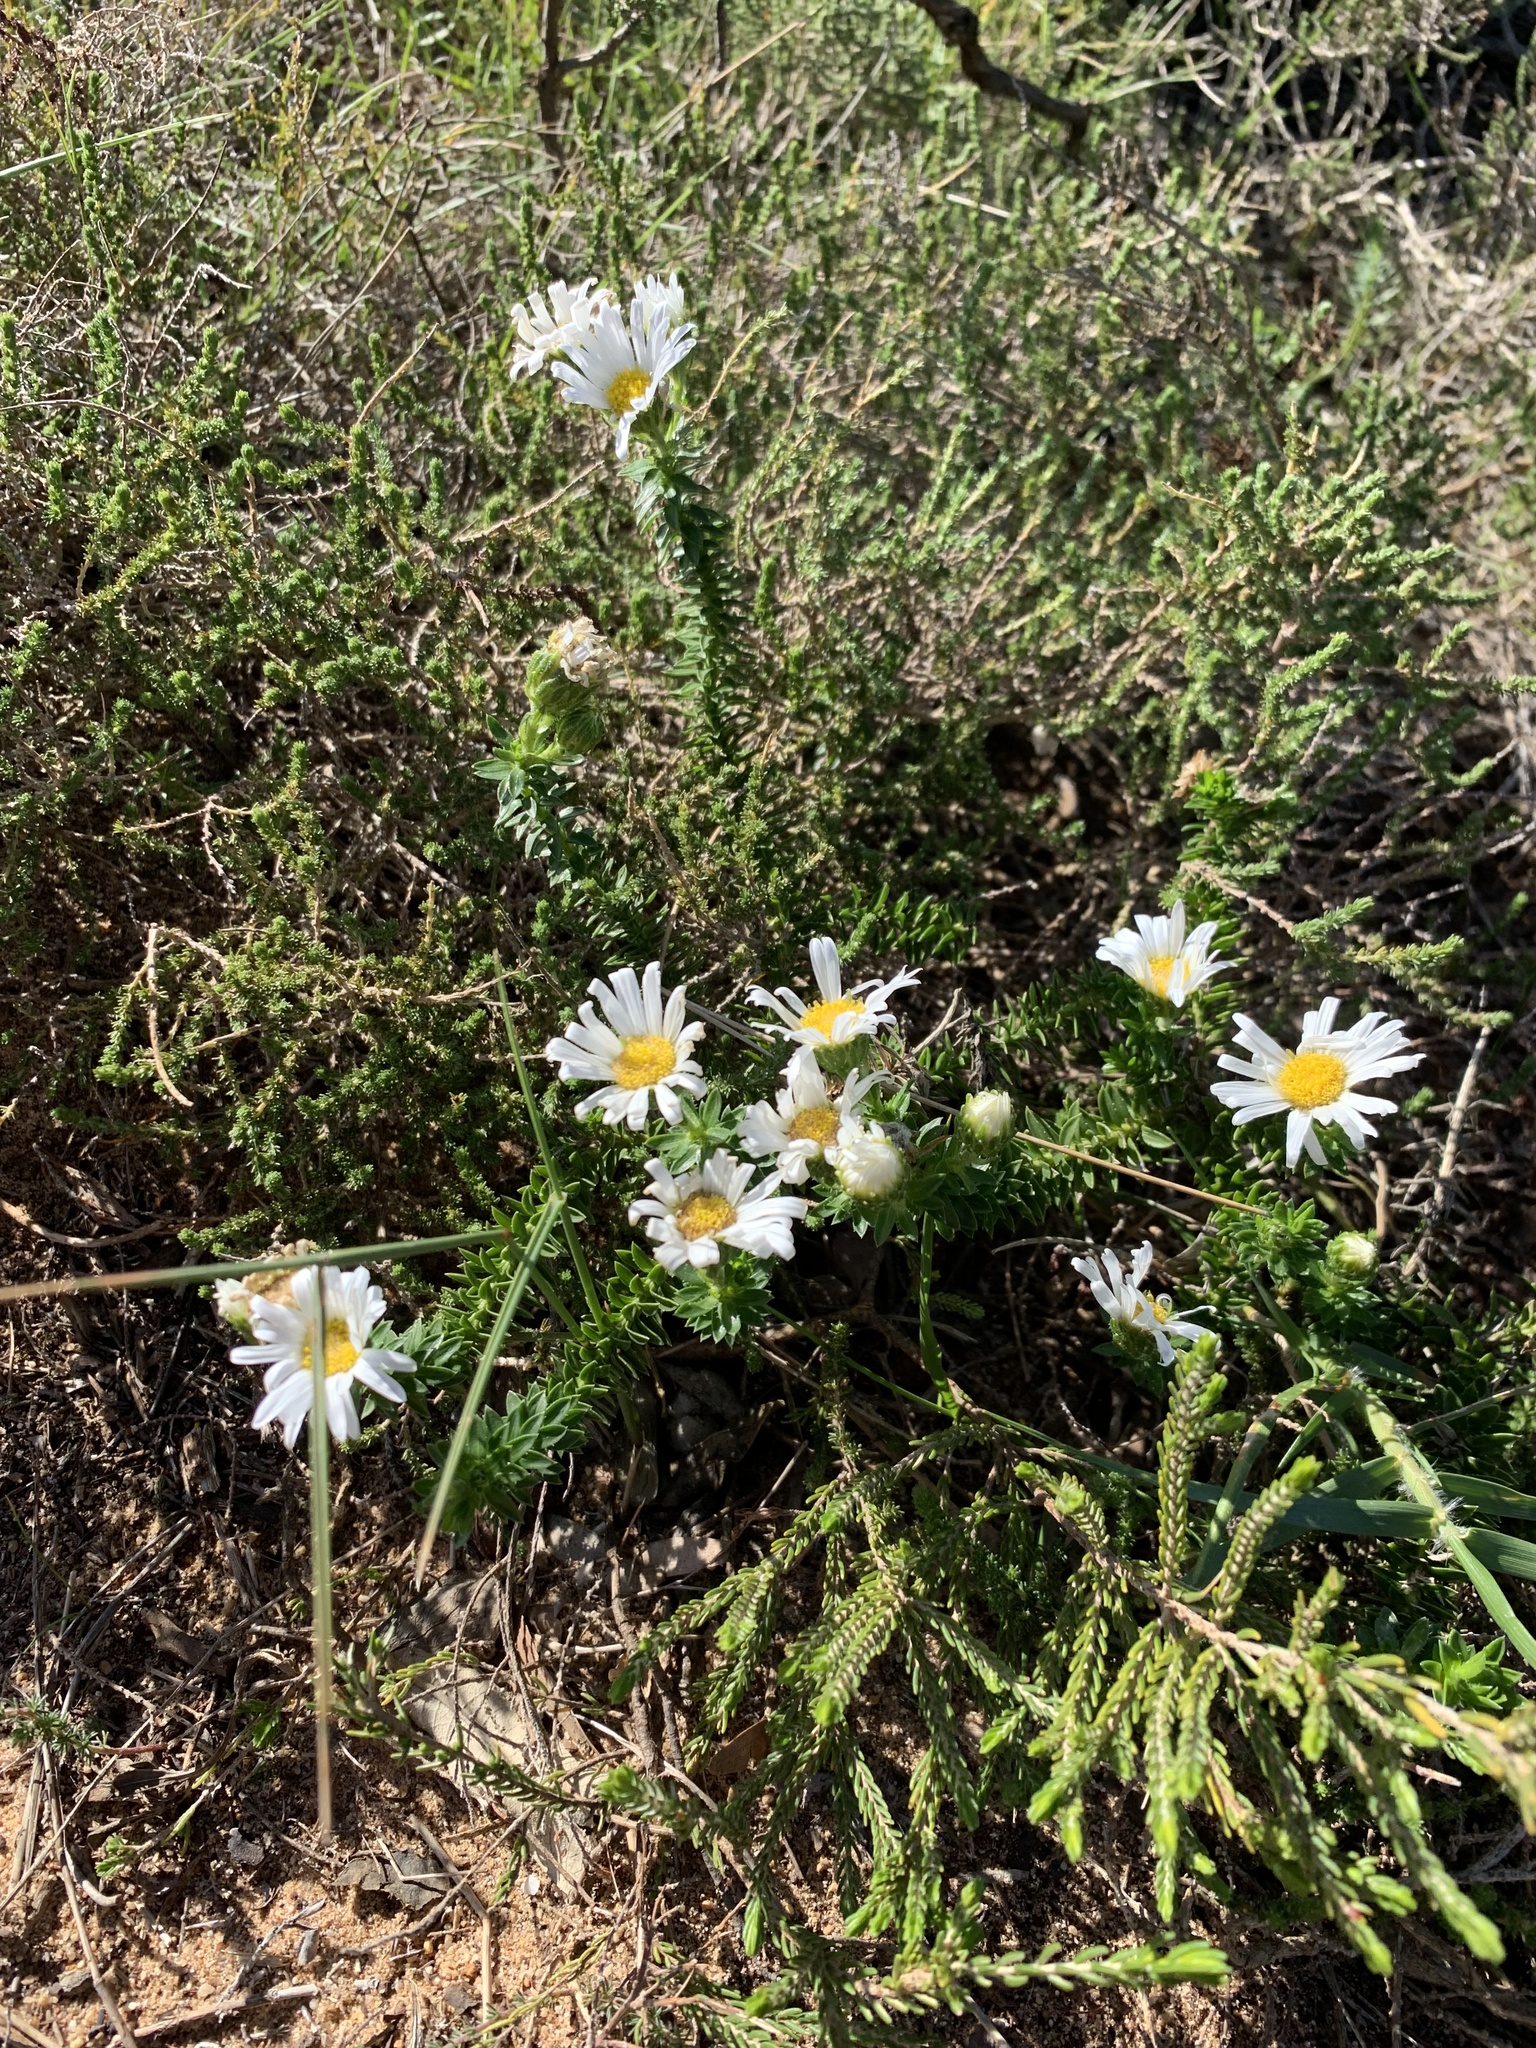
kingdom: Plantae
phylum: Tracheophyta
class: Magnoliopsida
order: Asterales
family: Asteraceae
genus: Felicia
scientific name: Felicia echinata
